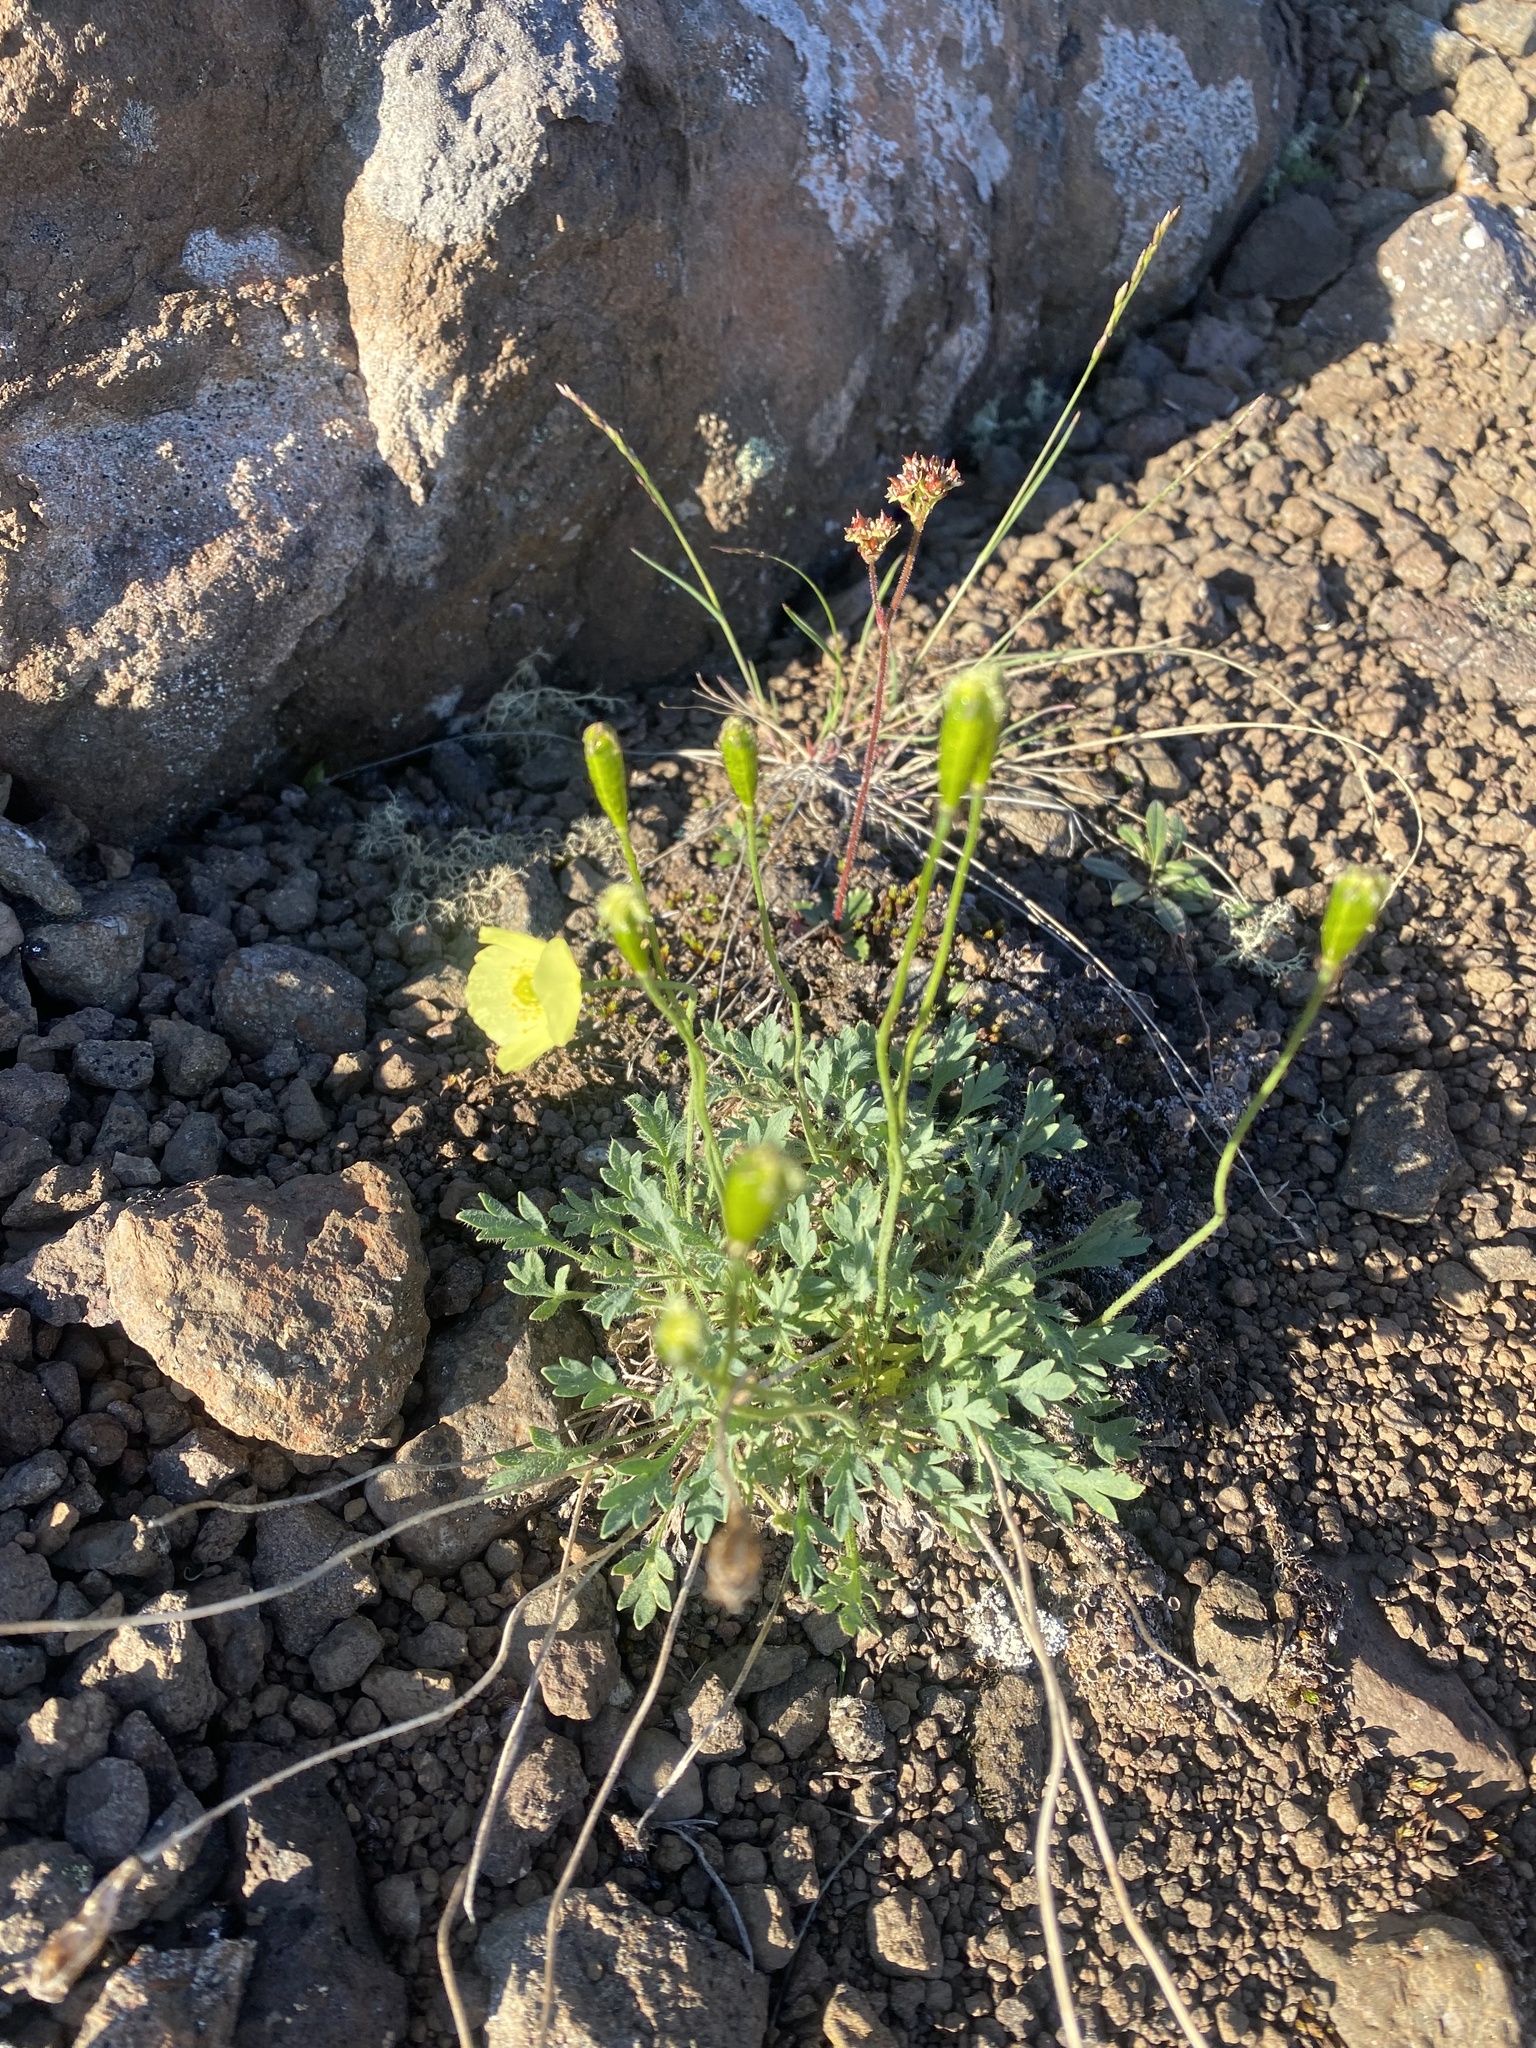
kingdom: Plantae
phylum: Tracheophyta
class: Magnoliopsida
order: Ranunculales
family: Papaveraceae
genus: Papaver
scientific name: Papaver variegatum
